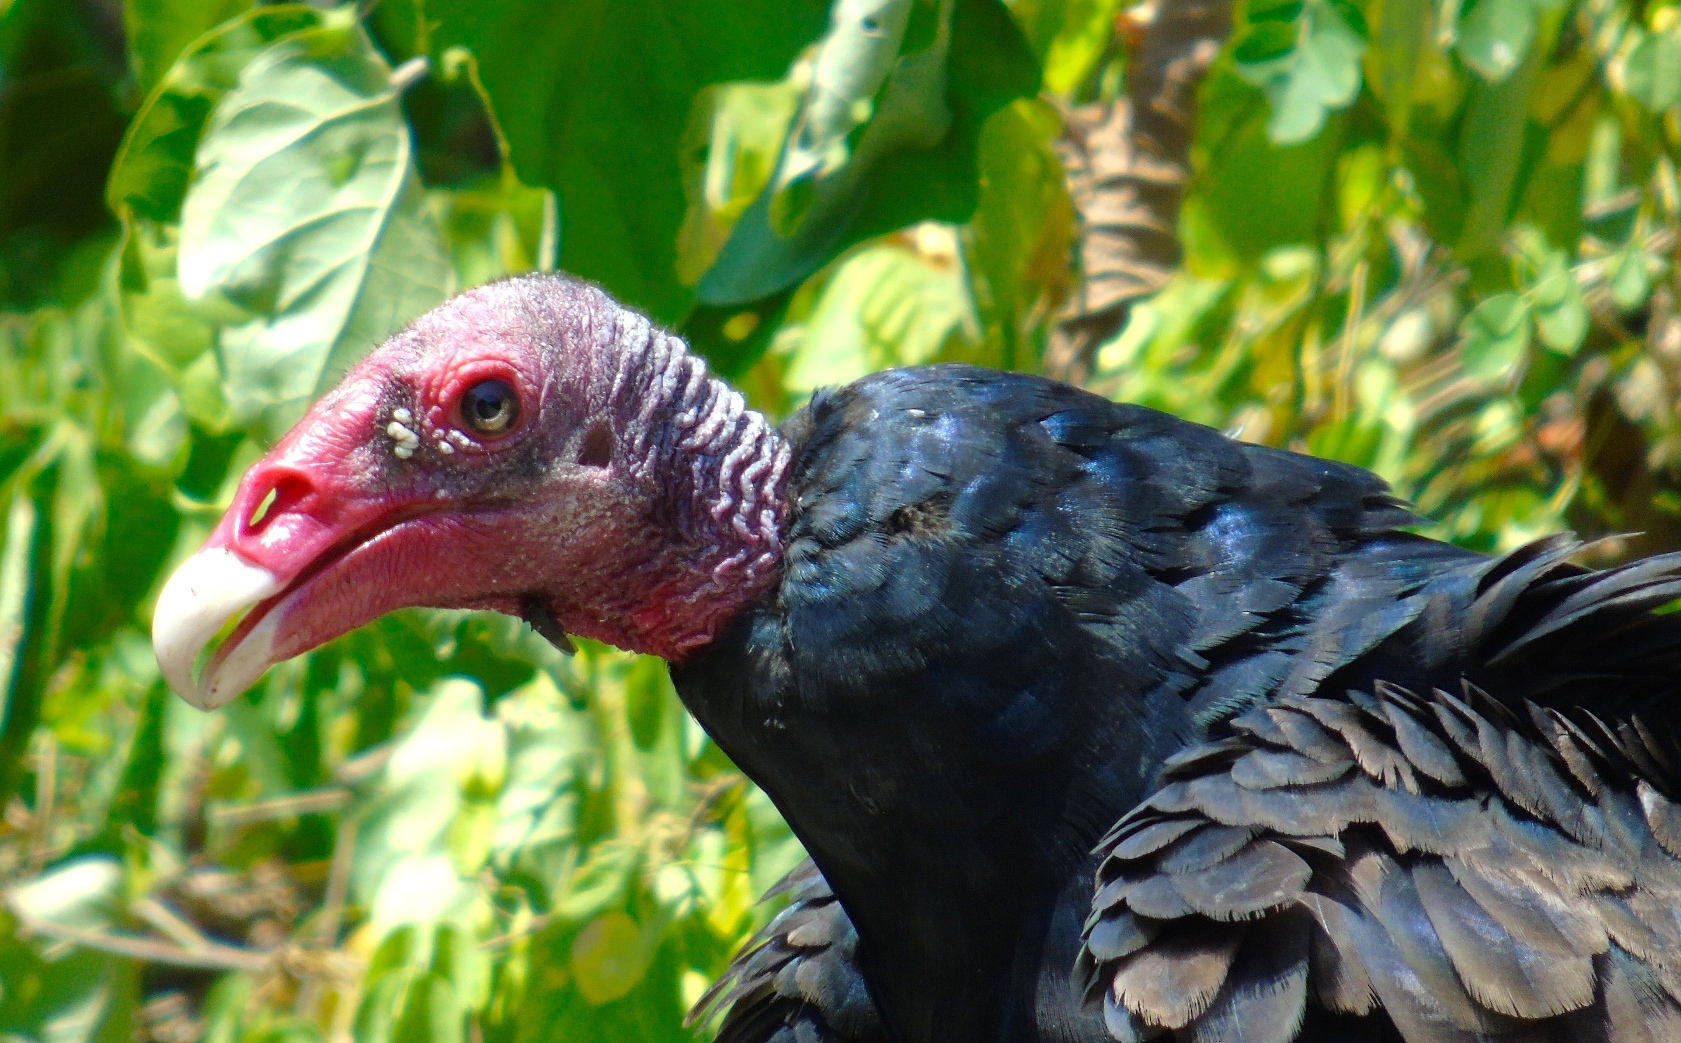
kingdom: Animalia
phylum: Chordata
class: Aves
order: Accipitriformes
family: Cathartidae
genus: Cathartes
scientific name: Cathartes aura
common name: Turkey vulture
